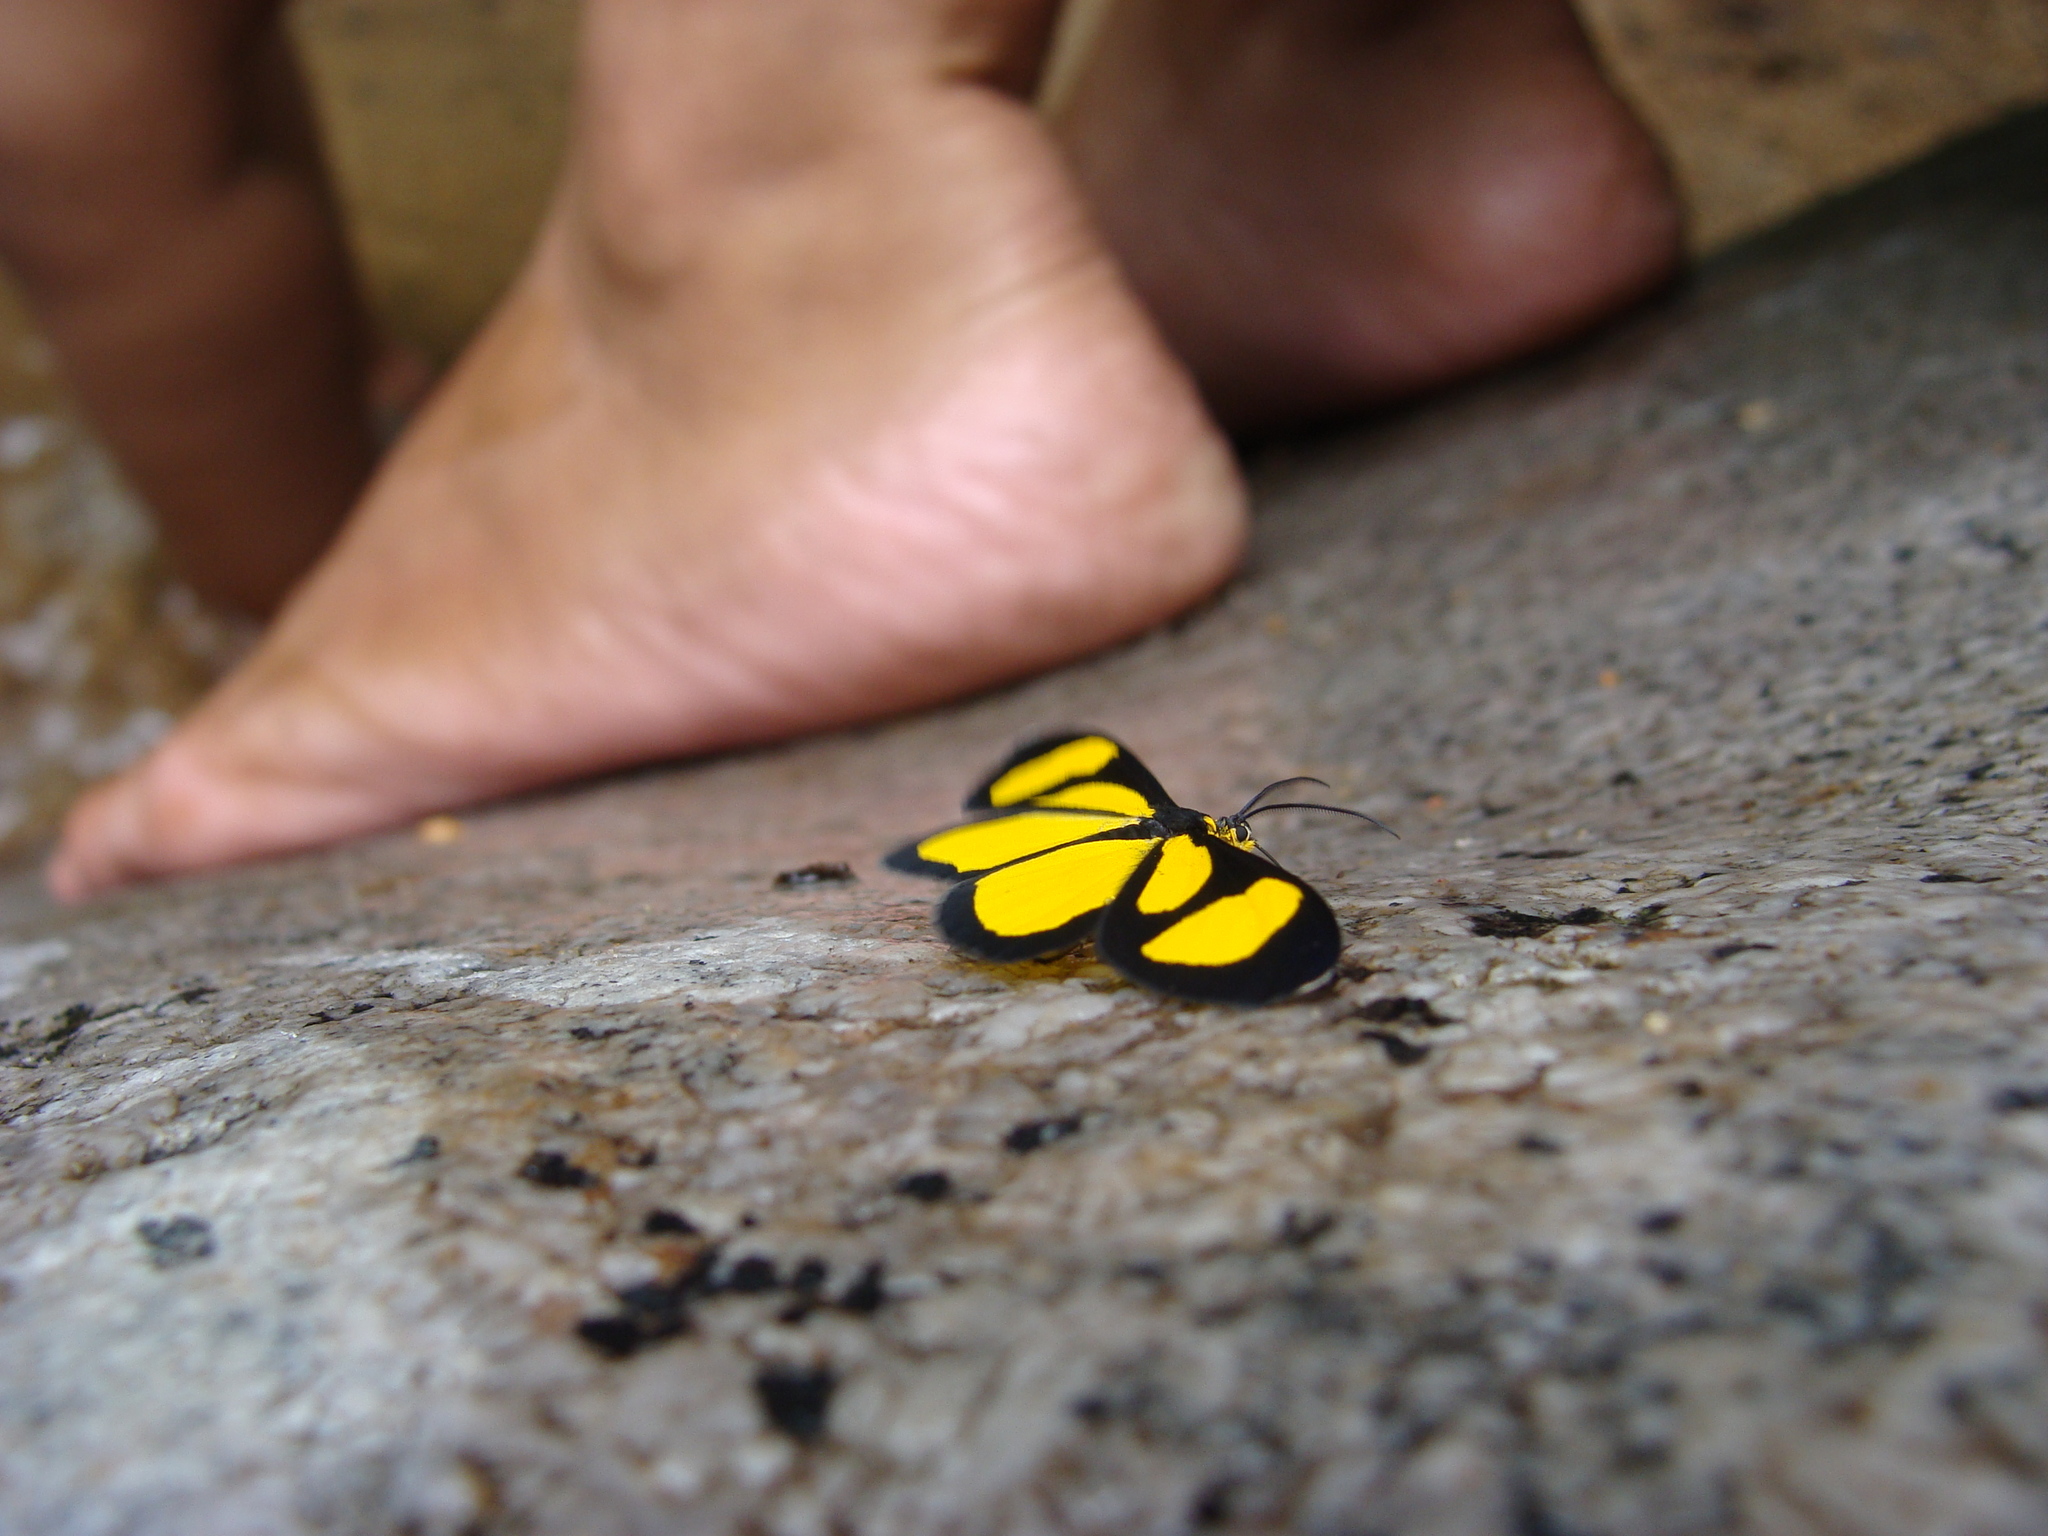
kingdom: Animalia
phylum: Arthropoda
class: Insecta
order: Lepidoptera
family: Geometridae
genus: Cyllopoda
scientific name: Cyllopoda bipuncta
